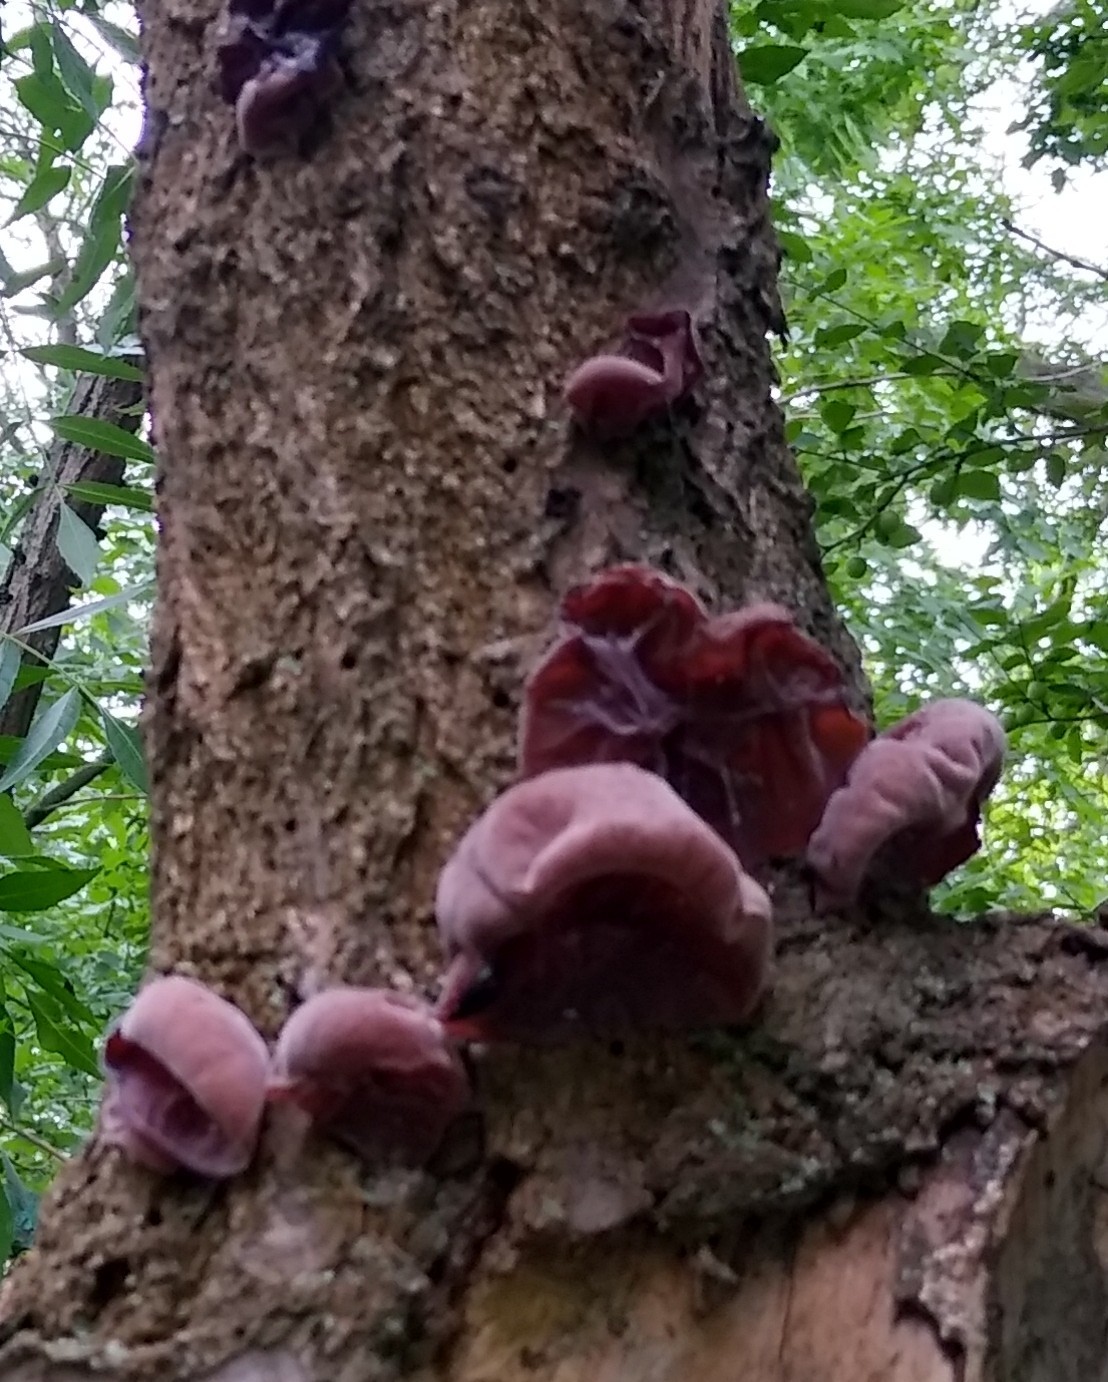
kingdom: Fungi
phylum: Basidiomycota
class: Agaricomycetes
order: Auriculariales
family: Auriculariaceae
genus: Auricularia
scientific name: Auricularia auricula-judae
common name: Jelly ear
